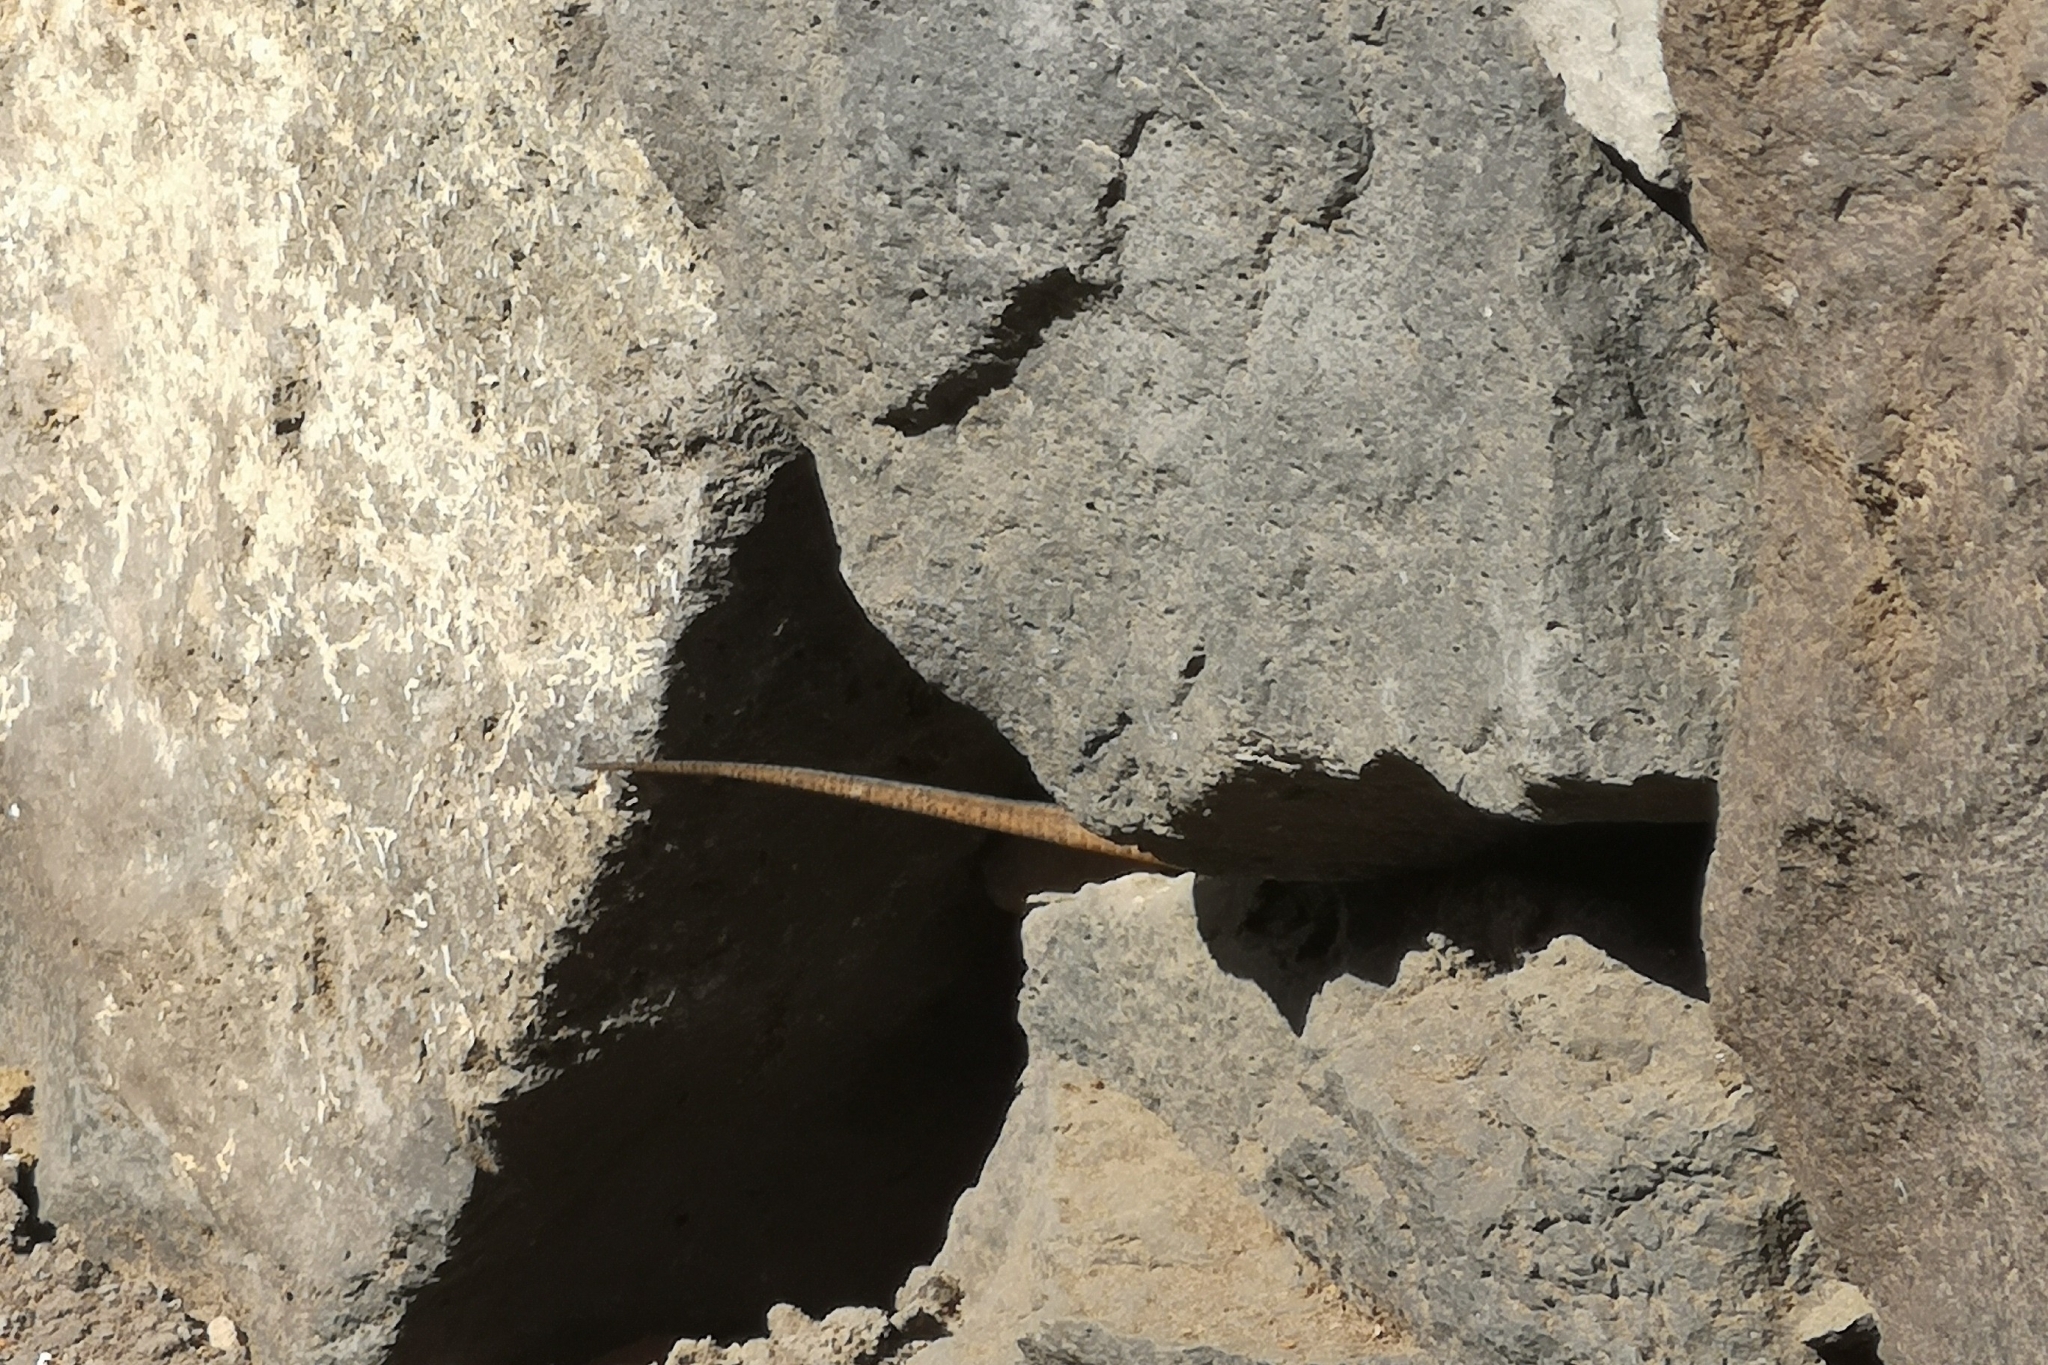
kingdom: Animalia
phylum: Chordata
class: Squamata
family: Lacertidae
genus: Gallotia
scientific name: Gallotia galloti
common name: Gallot's lizard
